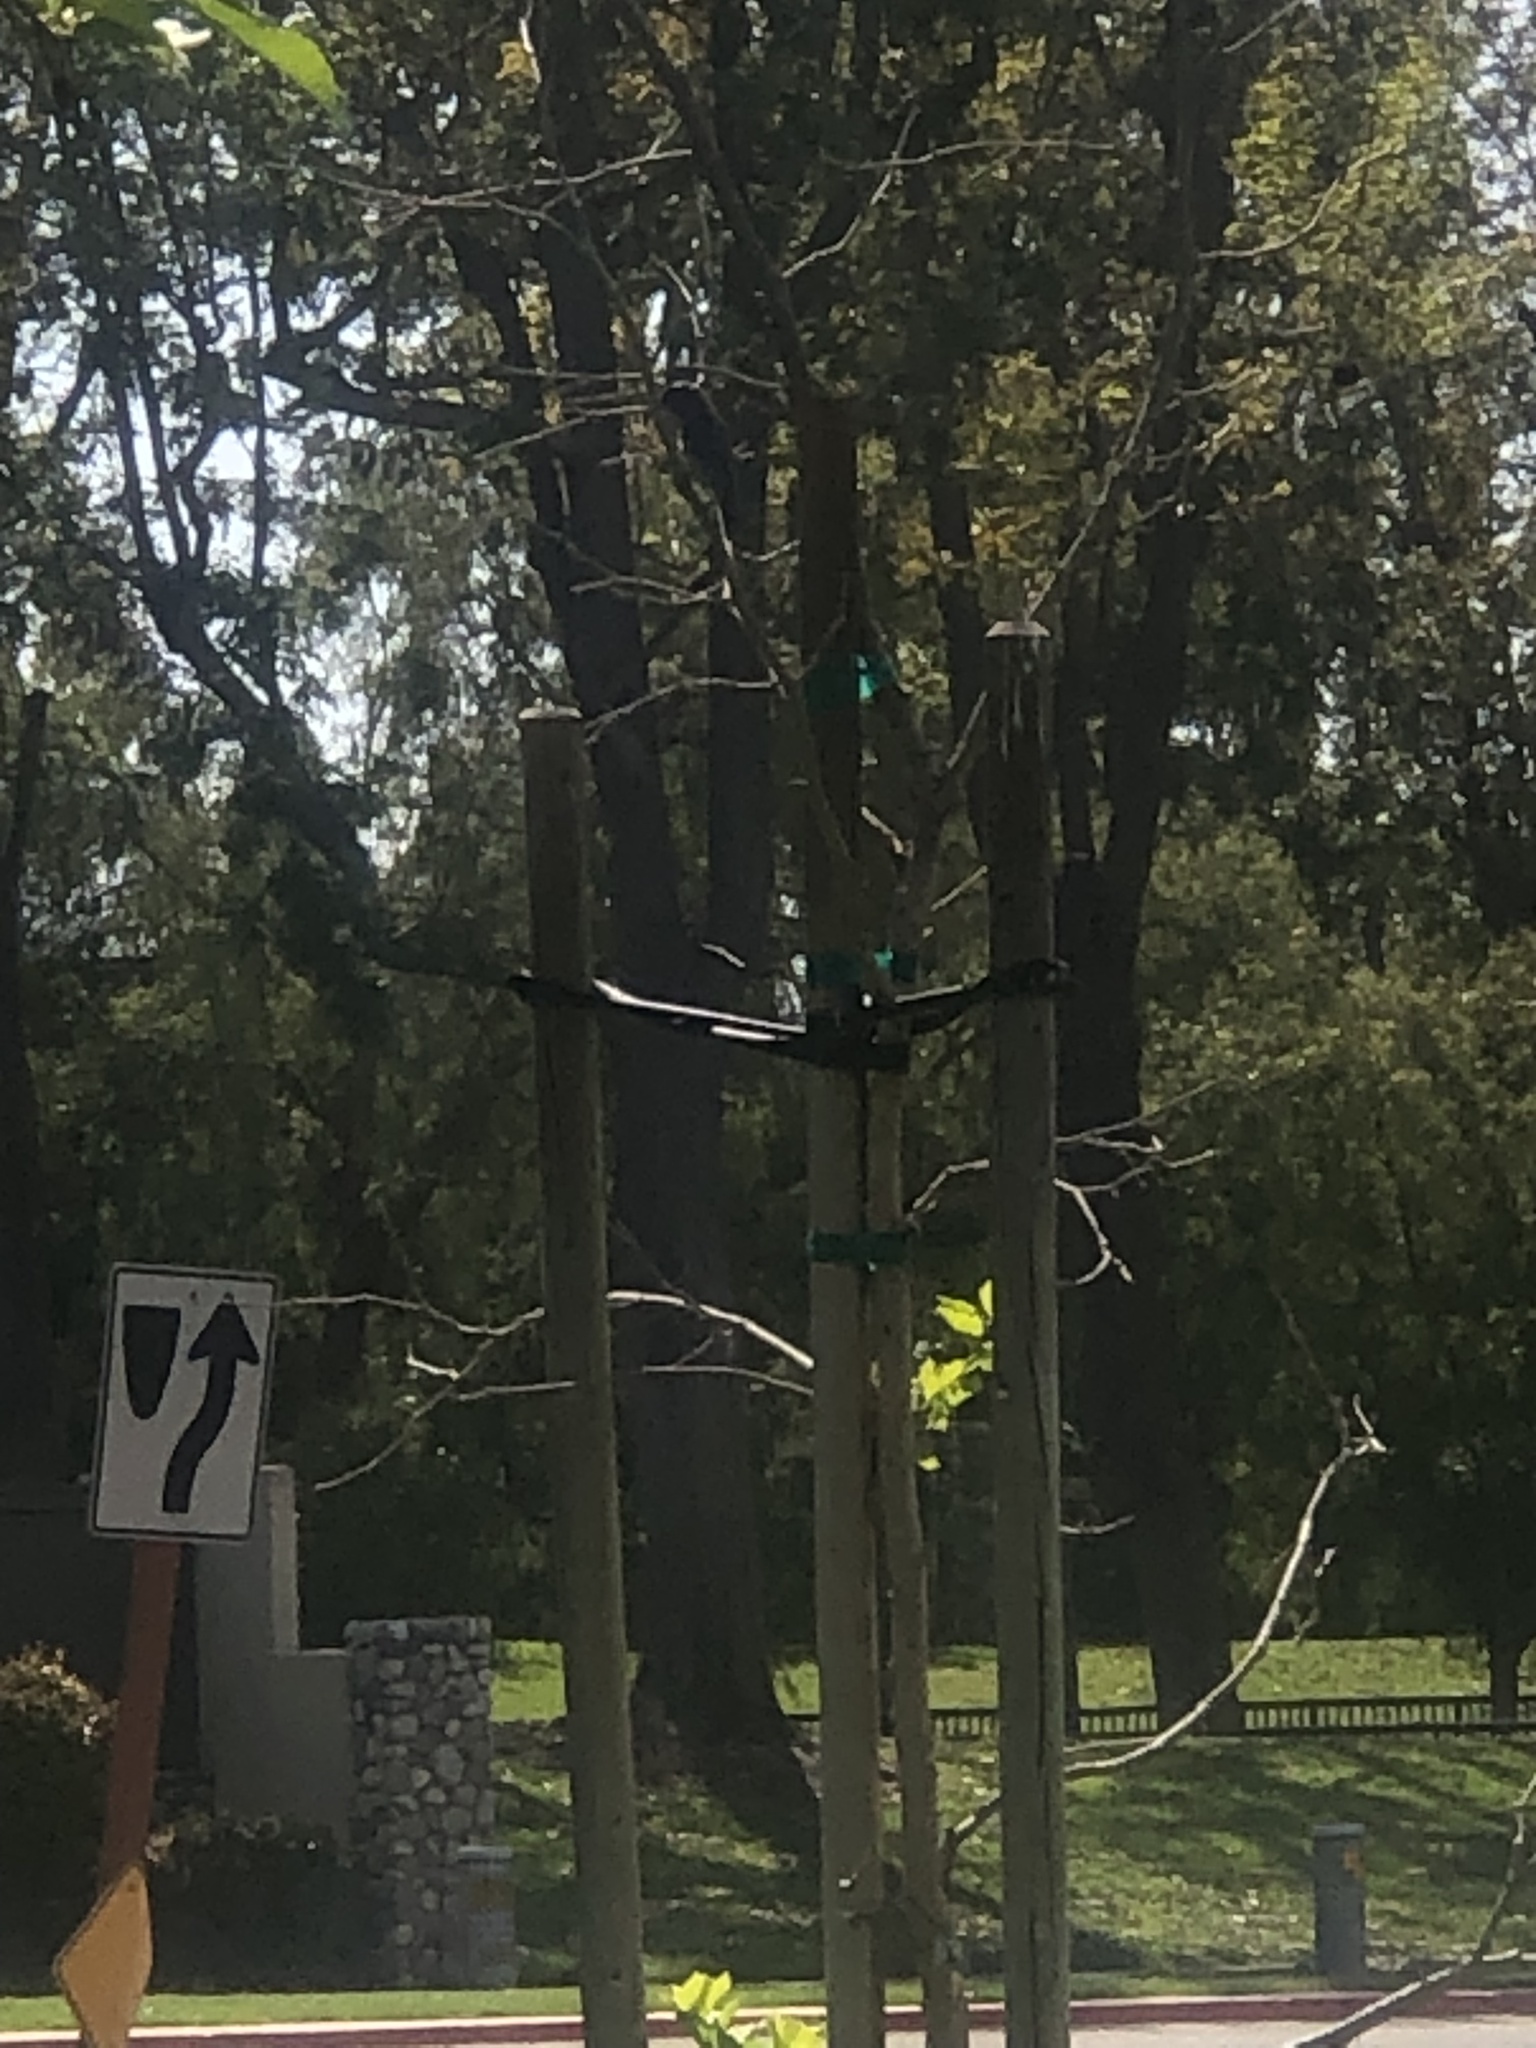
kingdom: Animalia
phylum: Chordata
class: Aves
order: Passeriformes
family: Turdidae
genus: Sialia
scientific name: Sialia mexicana
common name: Western bluebird
